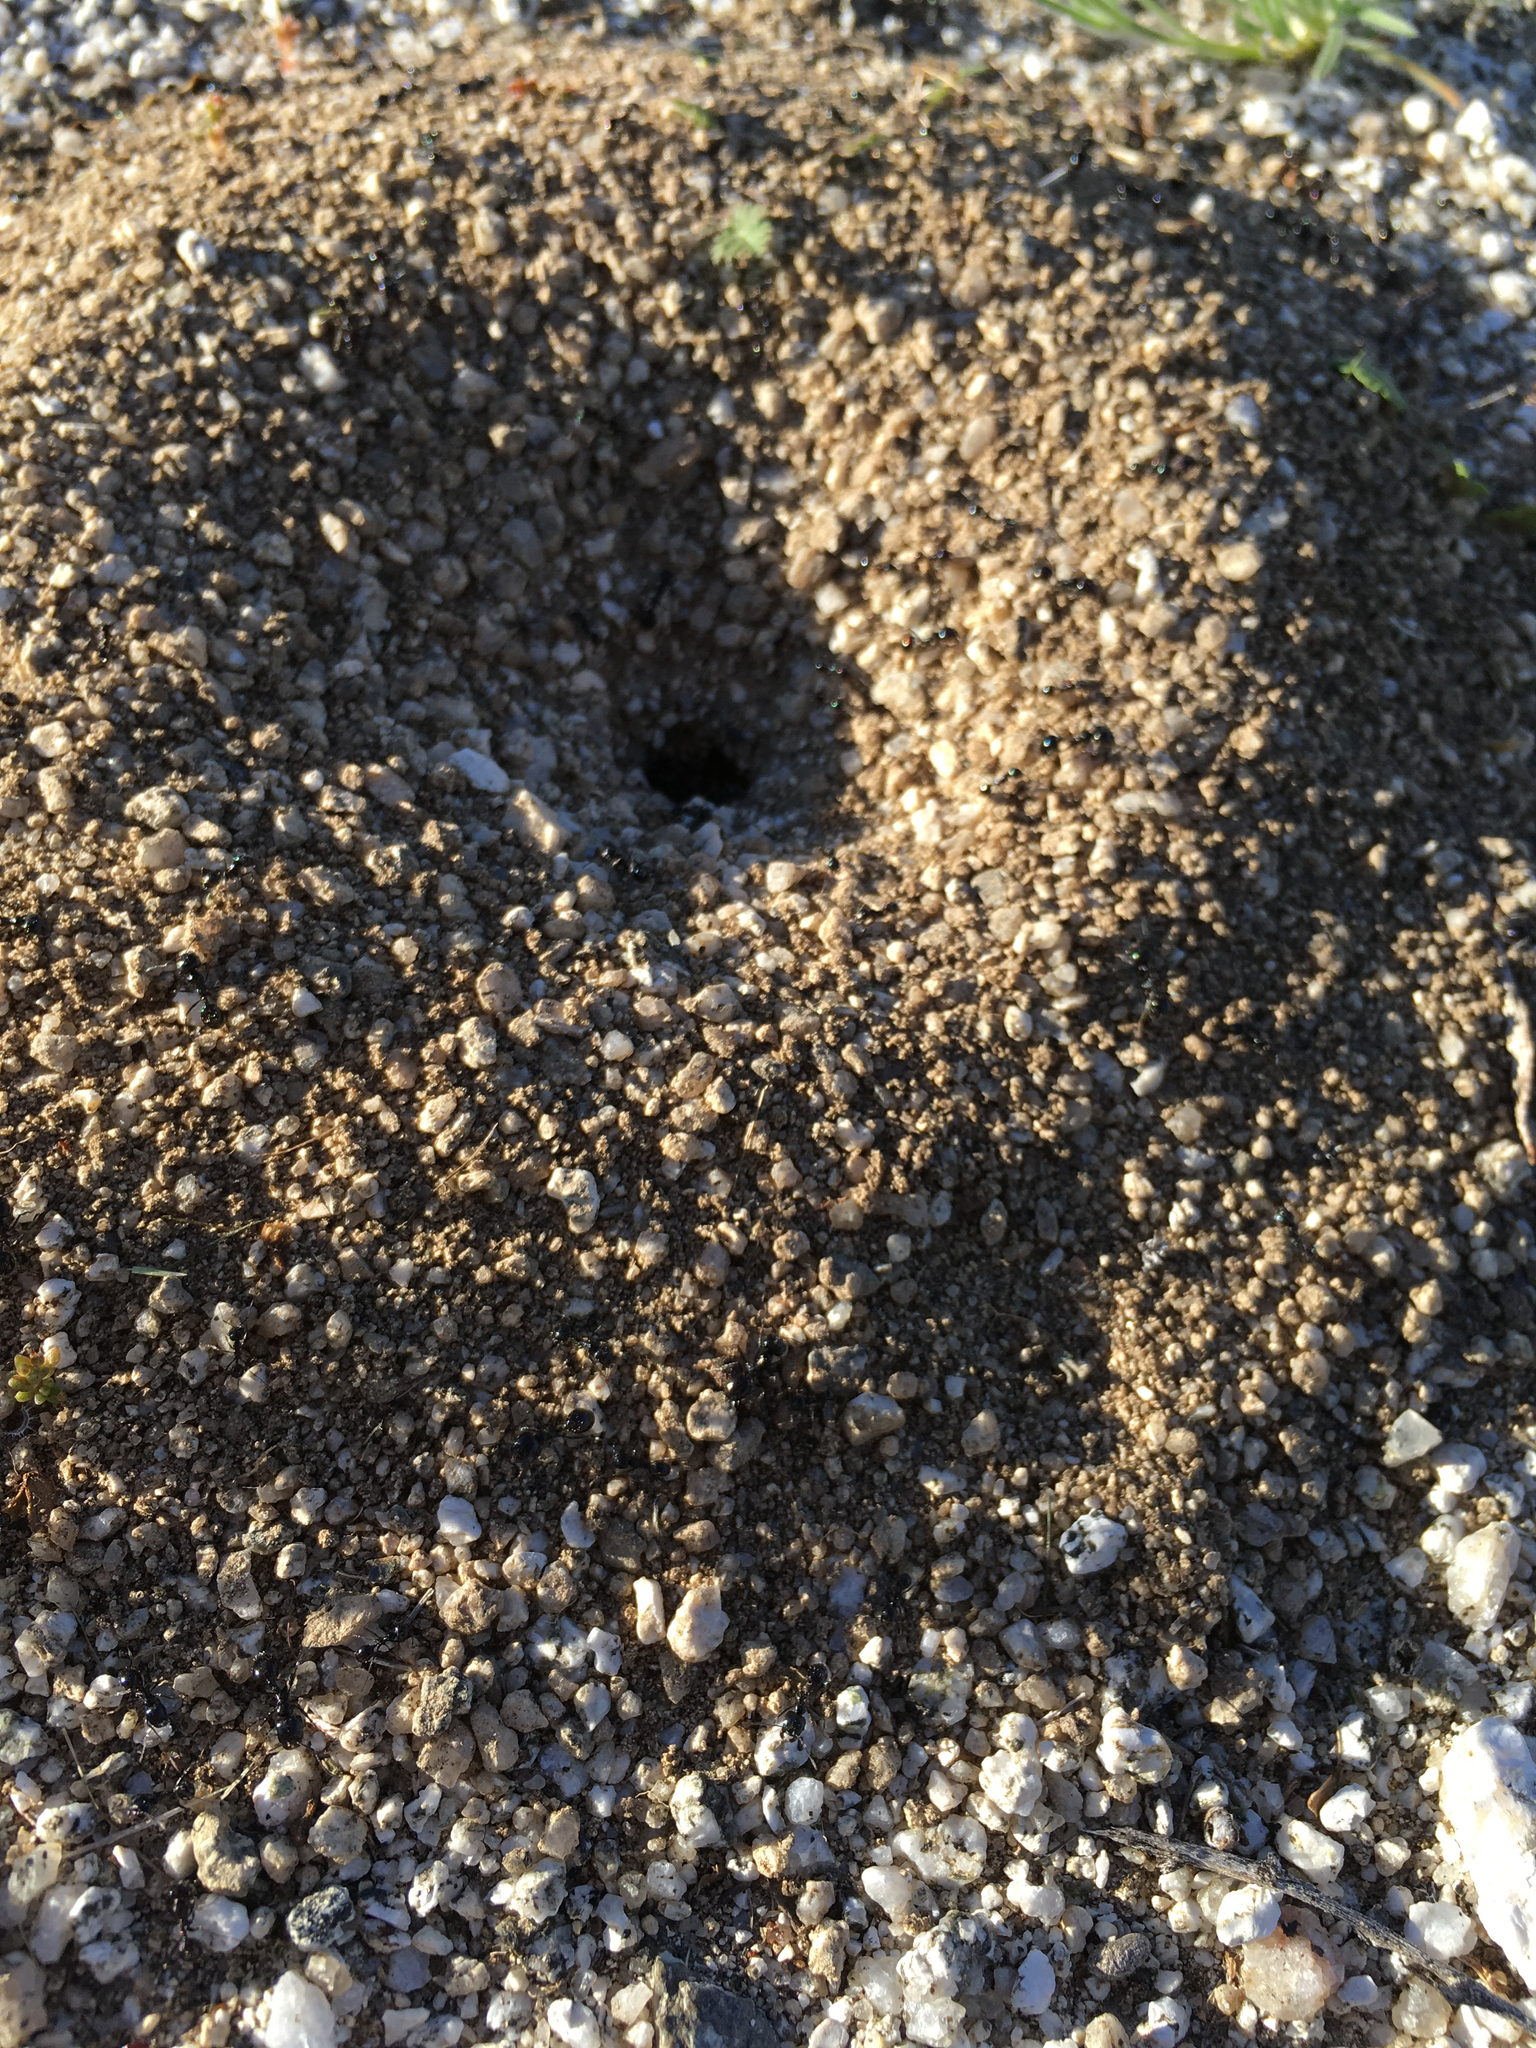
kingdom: Animalia
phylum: Arthropoda
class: Insecta
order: Hymenoptera
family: Formicidae
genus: Messor
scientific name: Messor pergandei
